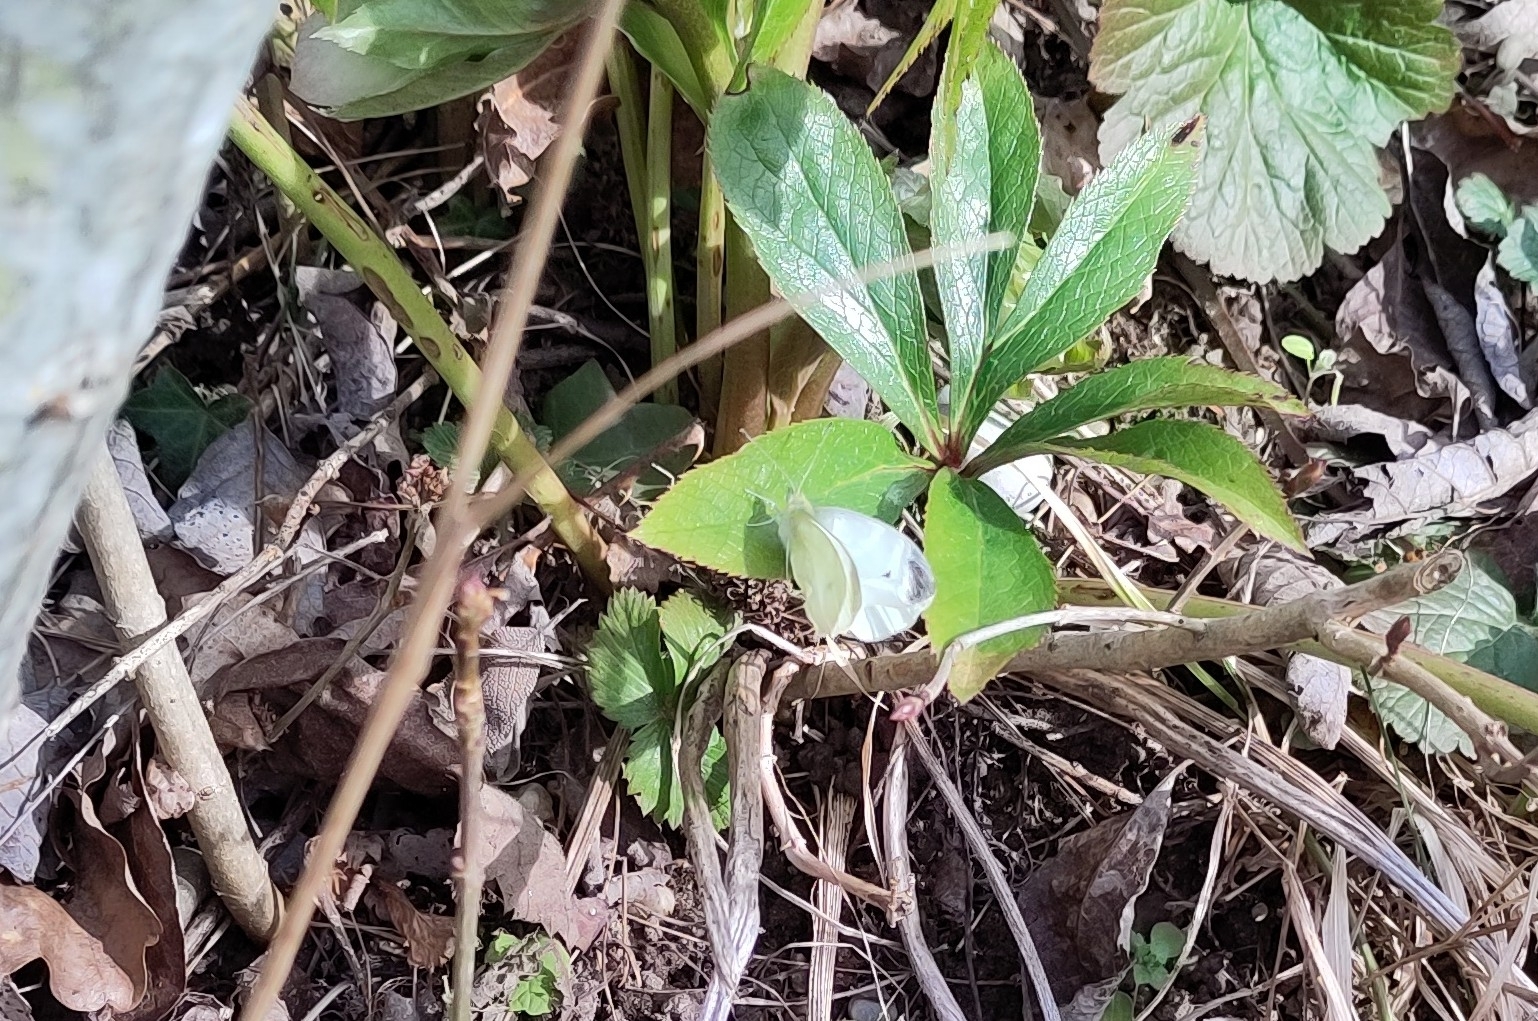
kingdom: Animalia
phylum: Arthropoda
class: Insecta
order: Lepidoptera
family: Pieridae
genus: Pieris
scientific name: Pieris mannii
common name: Southern small white
